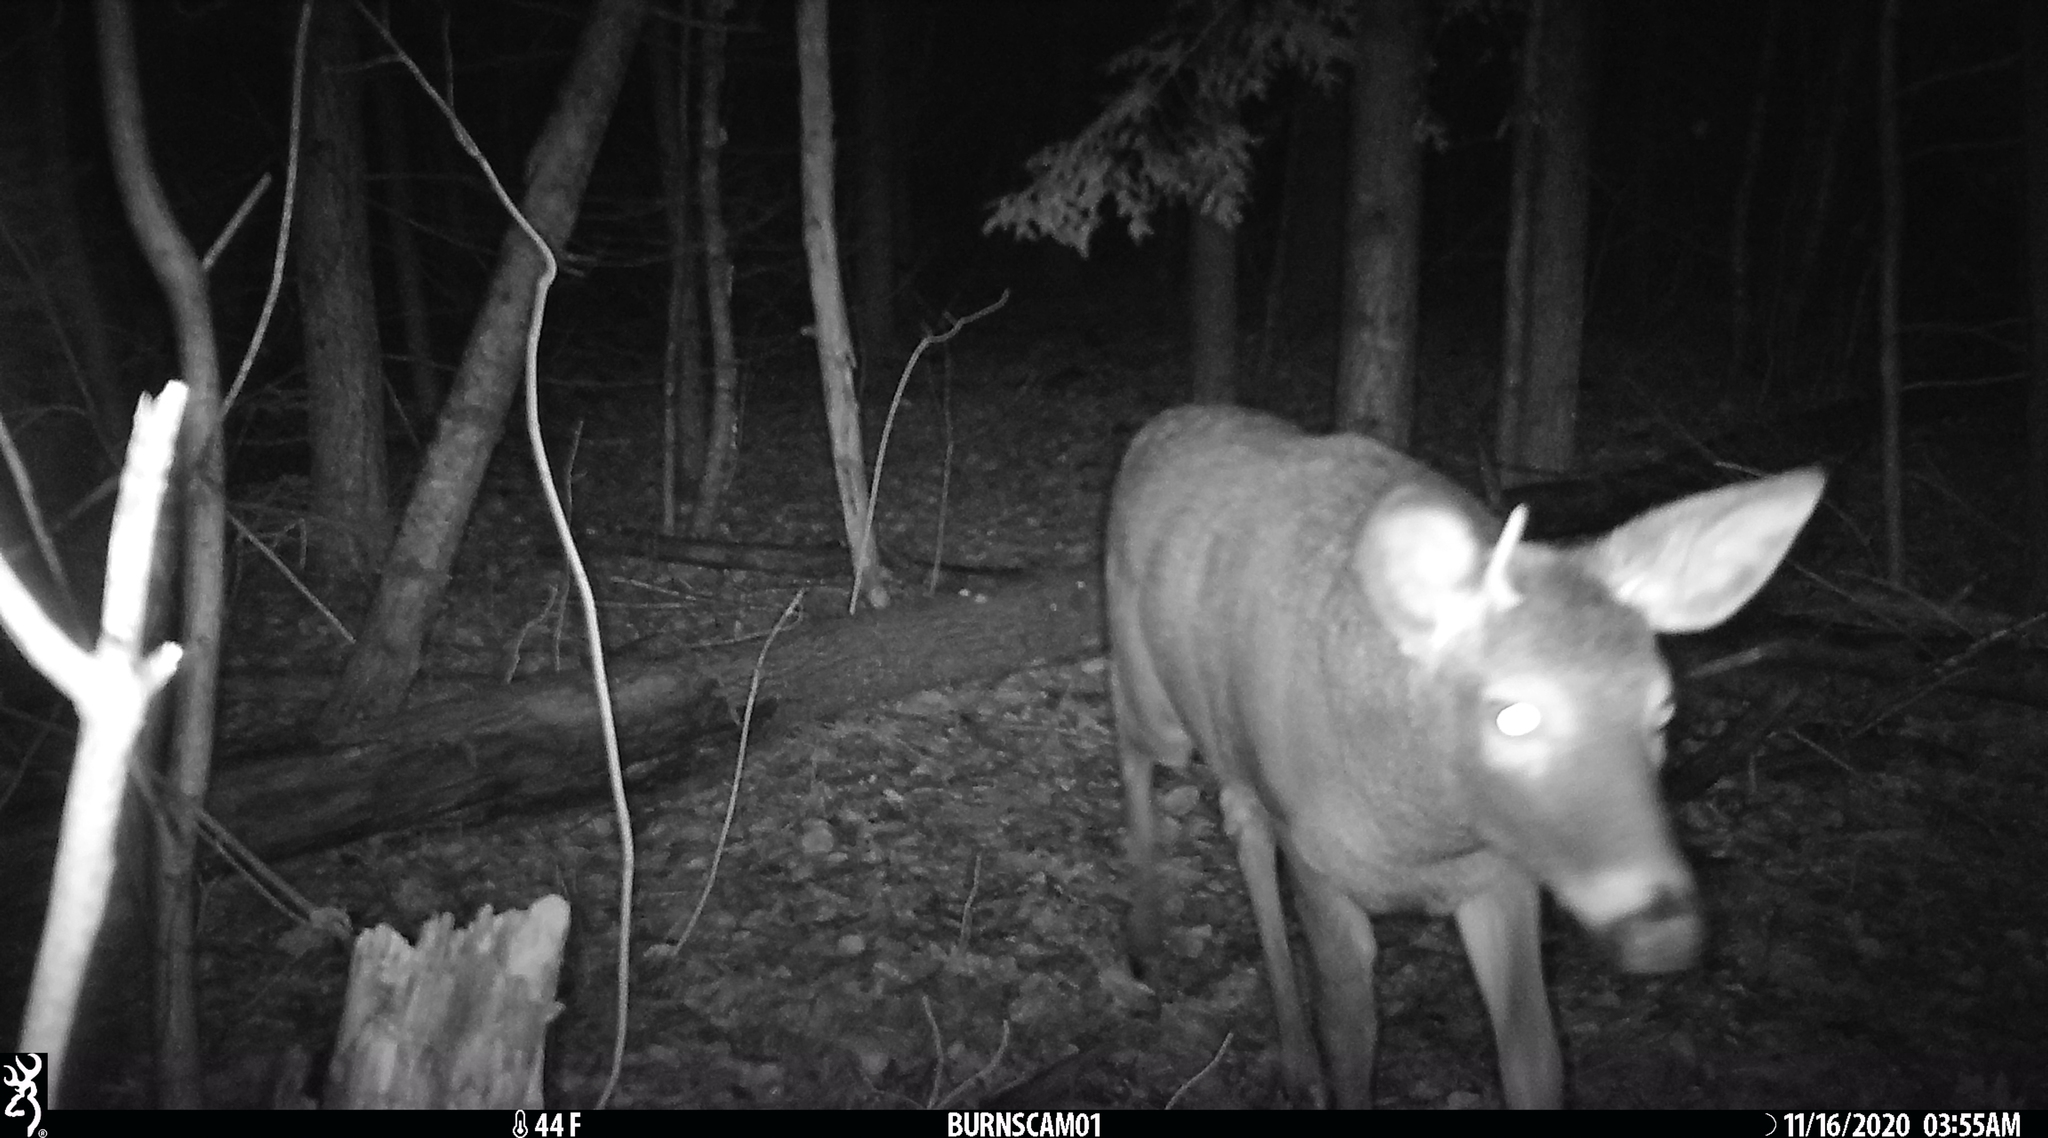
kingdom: Animalia
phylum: Chordata
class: Mammalia
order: Artiodactyla
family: Cervidae
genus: Odocoileus
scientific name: Odocoileus virginianus
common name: White-tailed deer
